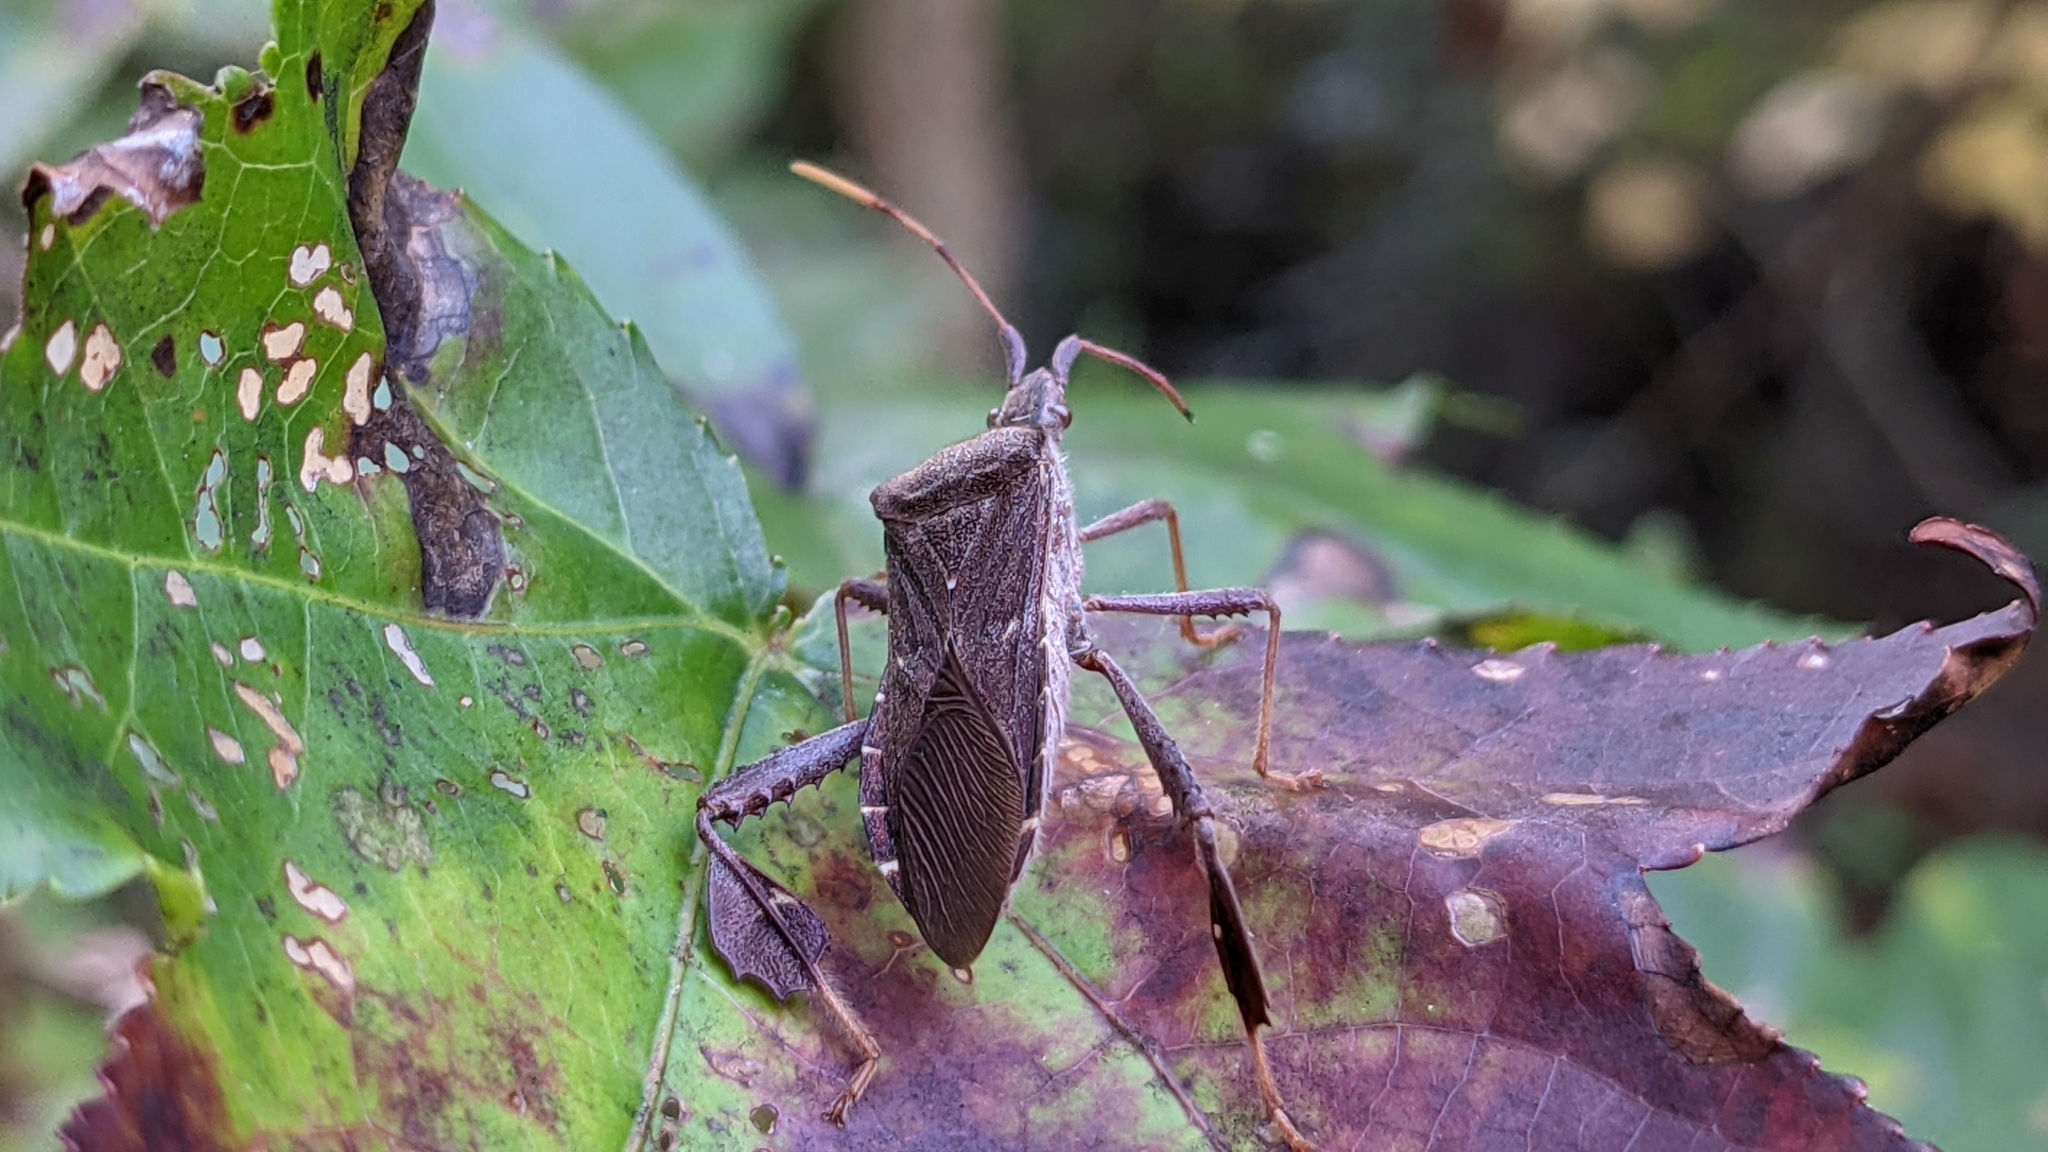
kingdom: Animalia
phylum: Arthropoda
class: Insecta
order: Hemiptera
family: Coreidae
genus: Leptoglossus
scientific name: Leptoglossus oppositus
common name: Northern leaf-footed bug
